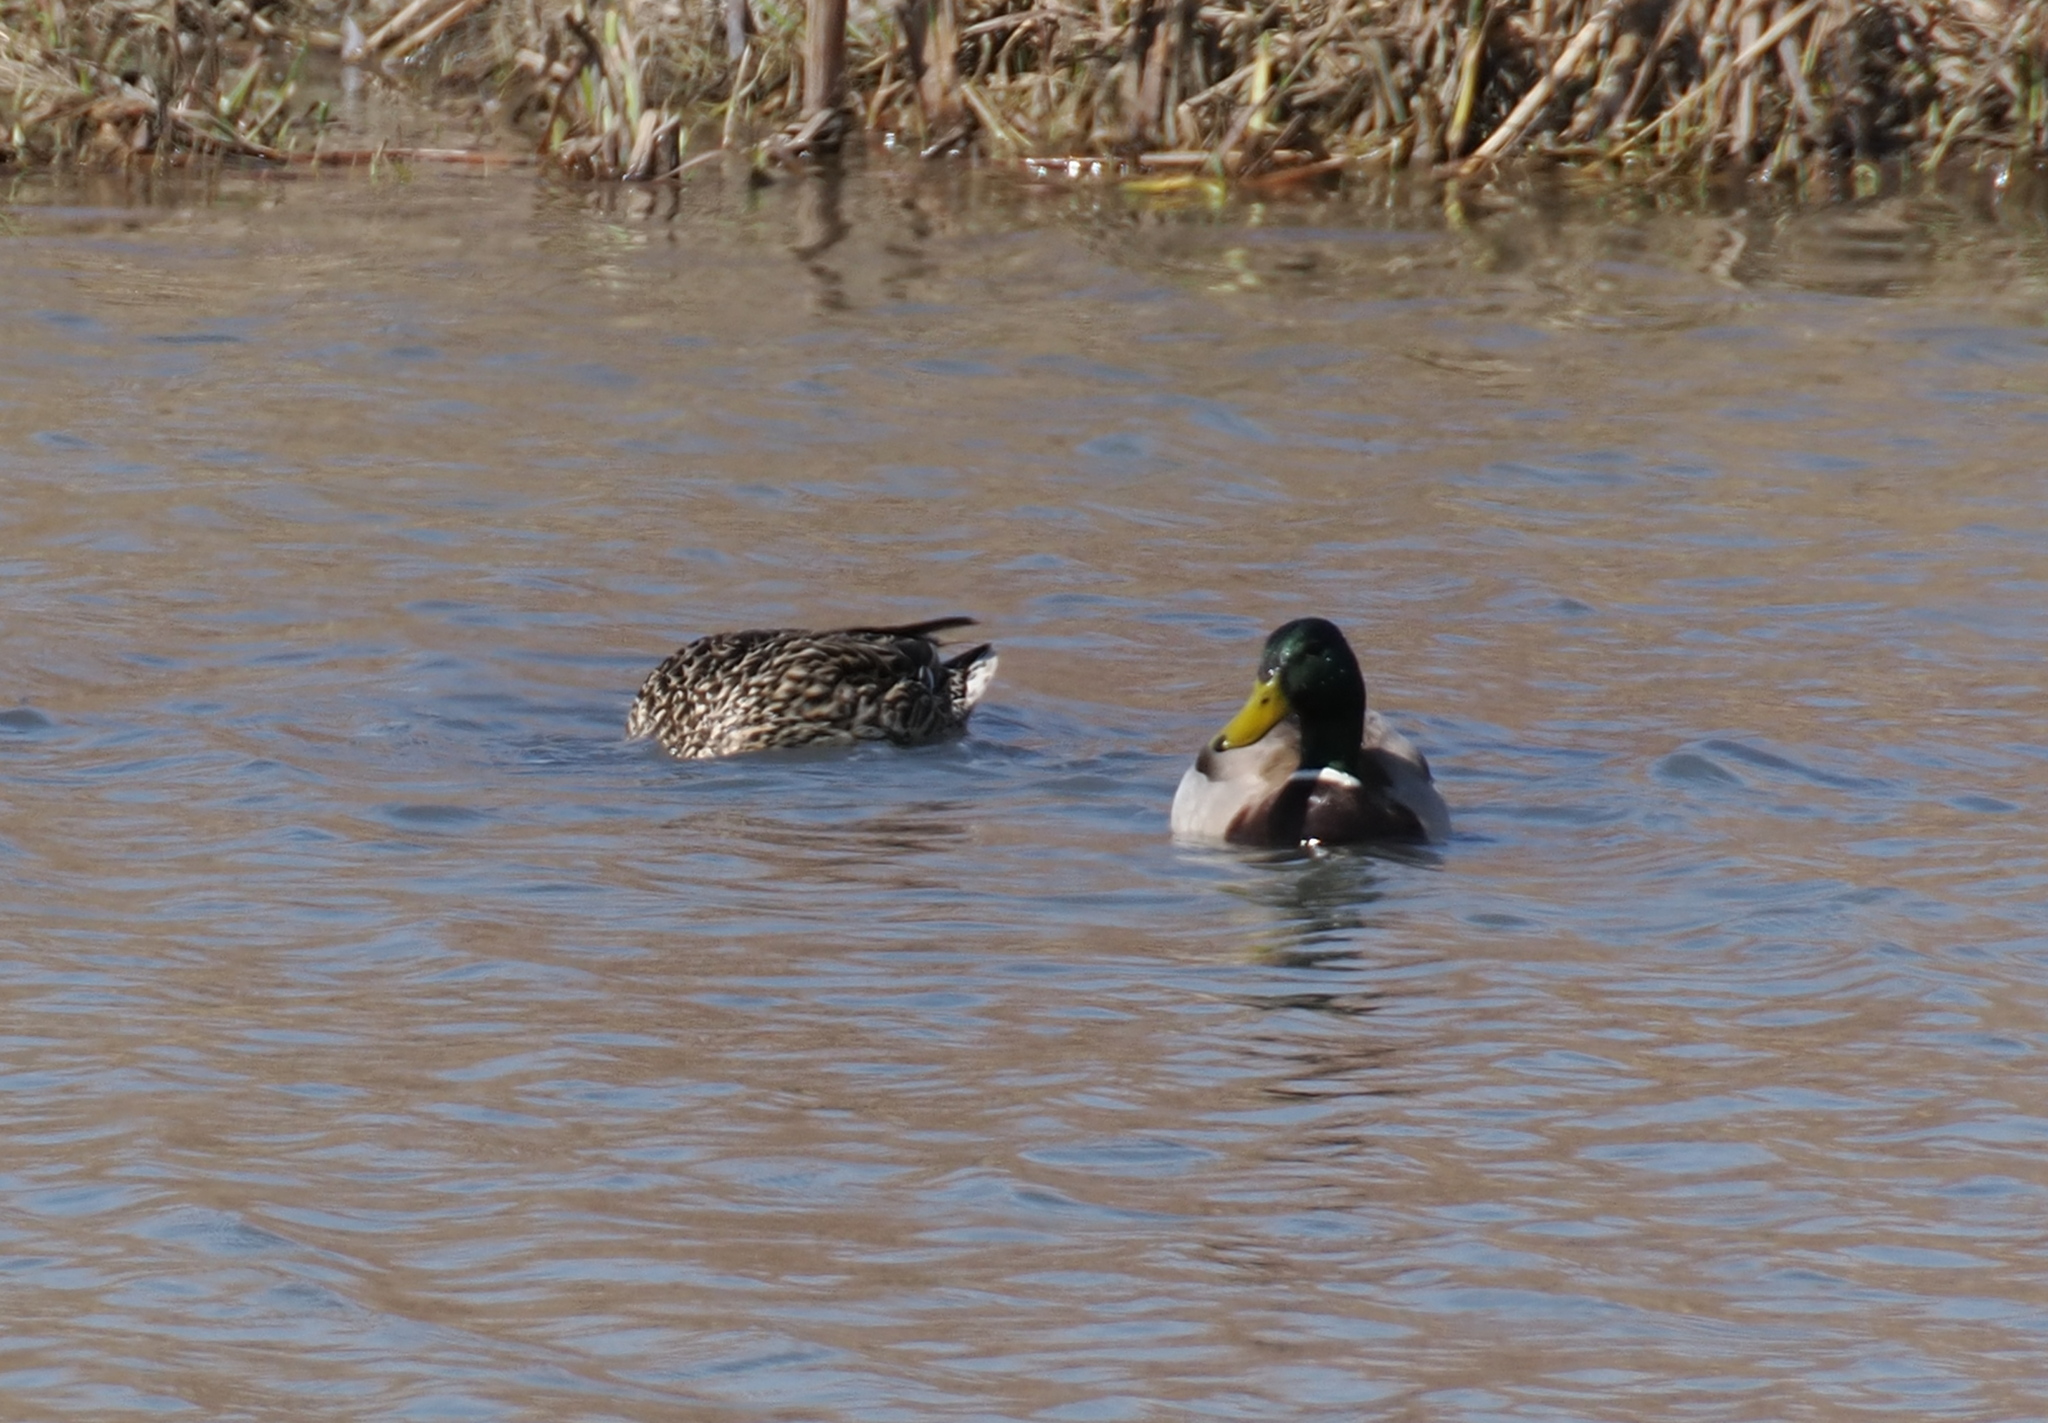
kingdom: Animalia
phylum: Chordata
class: Aves
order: Anseriformes
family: Anatidae
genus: Anas
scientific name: Anas platyrhynchos
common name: Mallard
